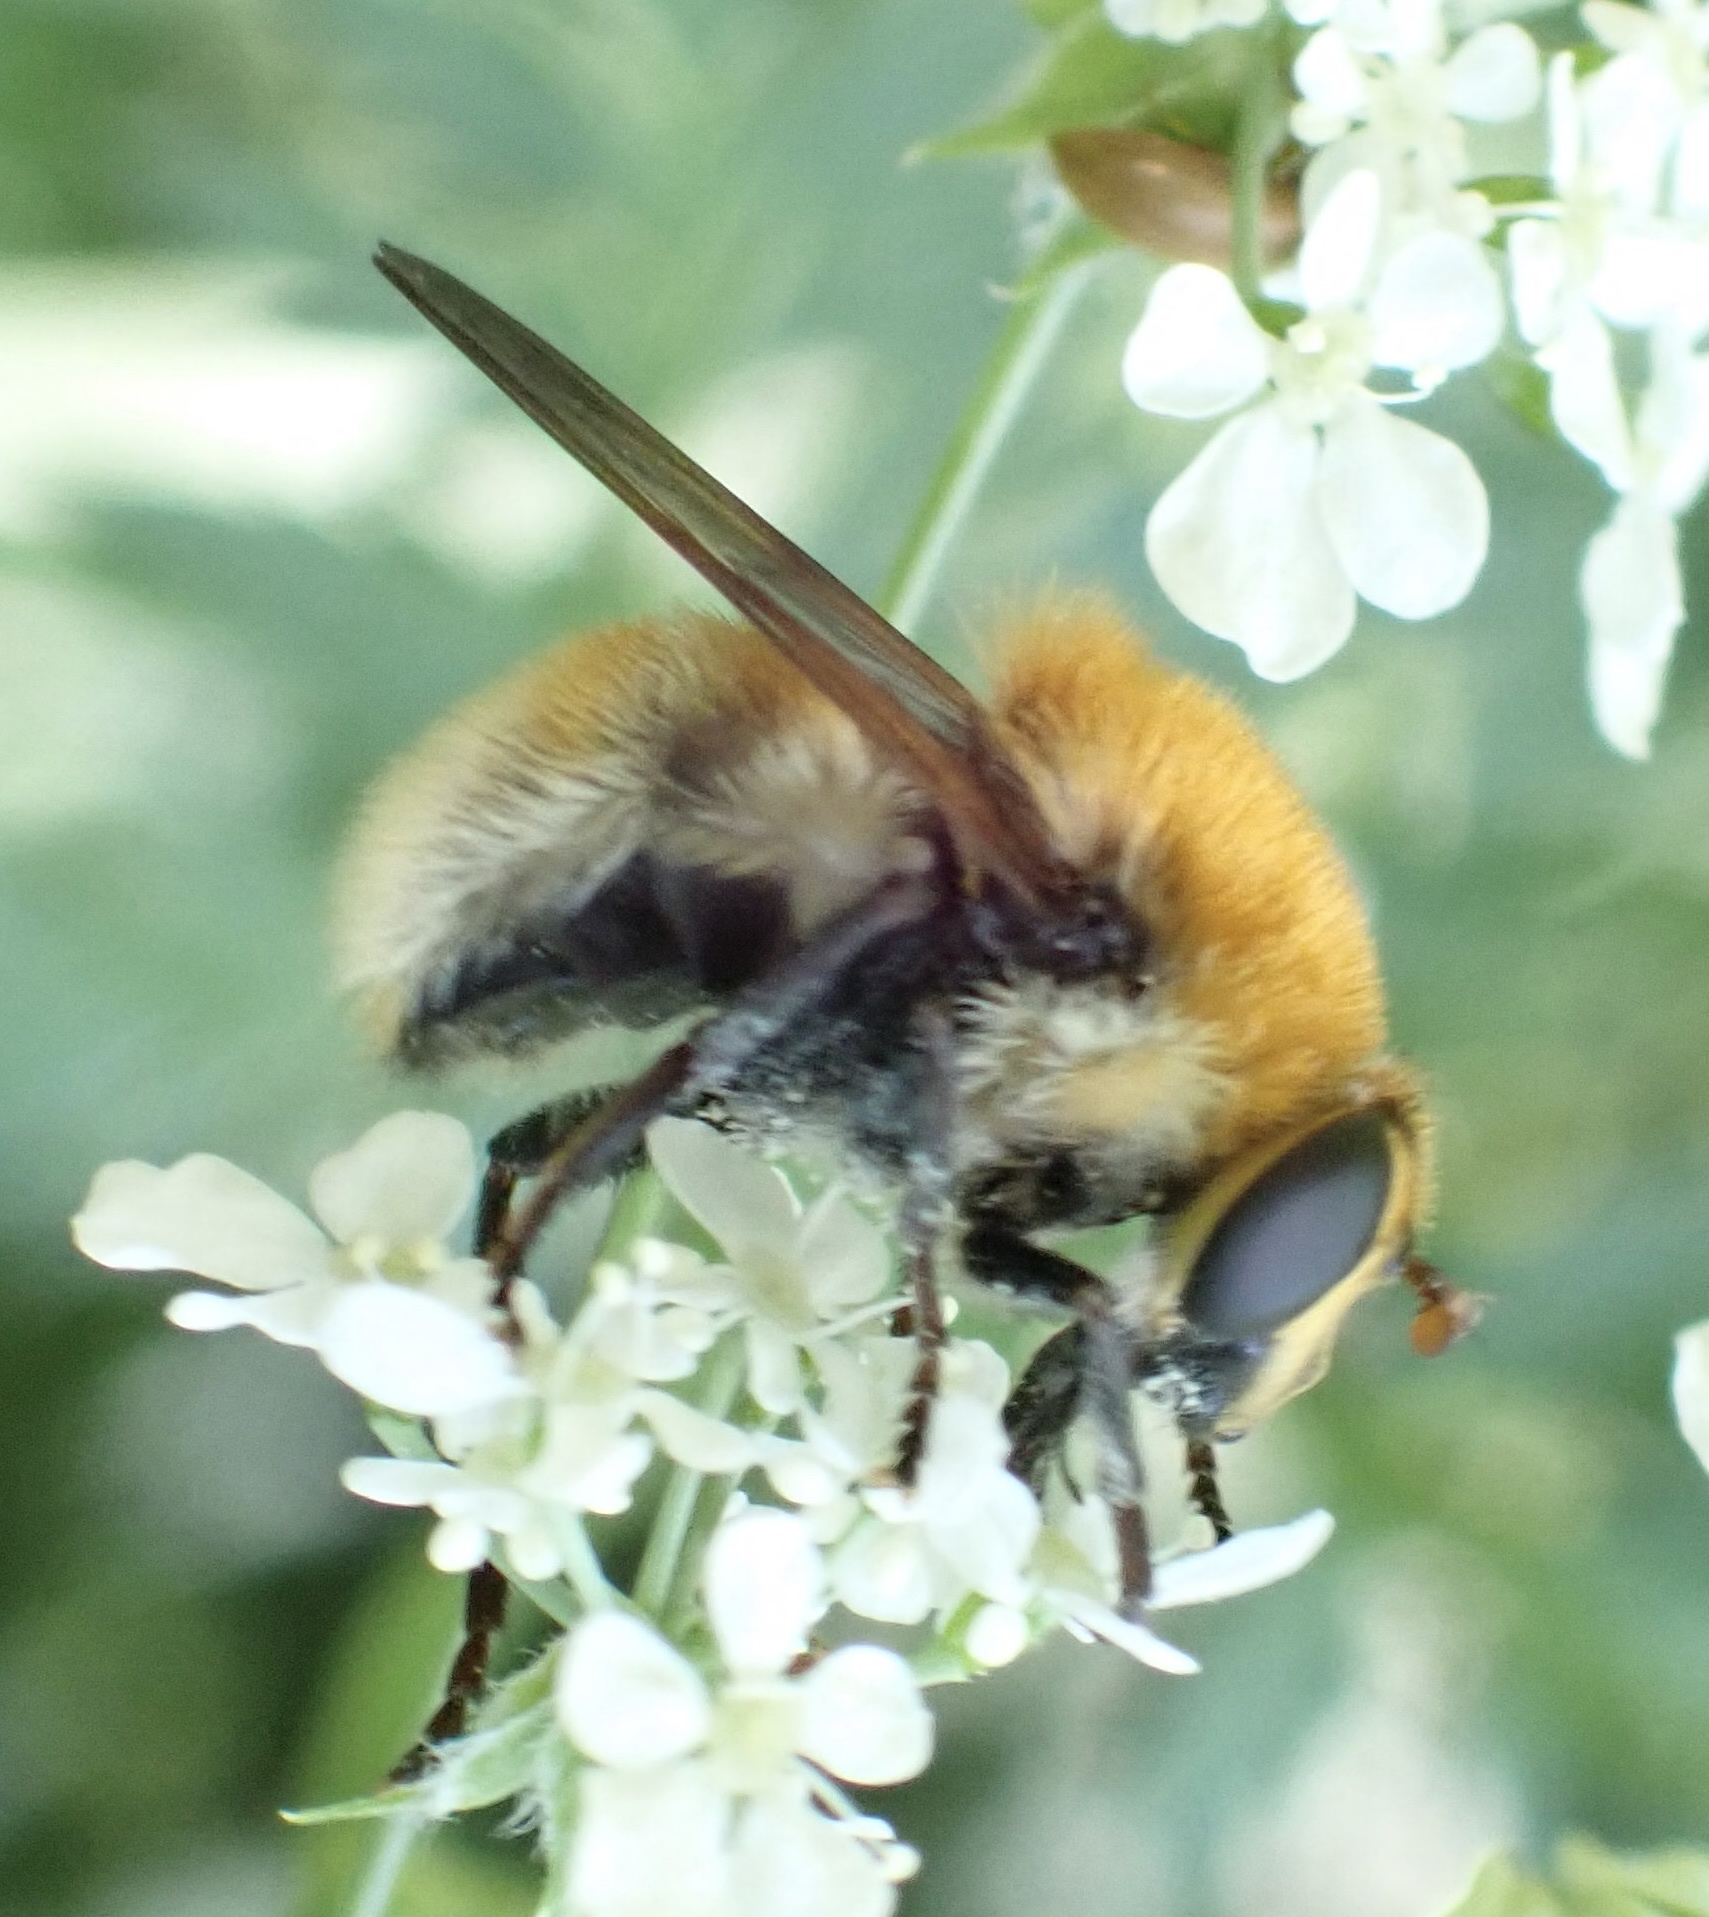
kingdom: Animalia
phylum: Arthropoda
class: Insecta
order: Diptera
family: Syrphidae
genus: Criorhina
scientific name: Criorhina berberina
